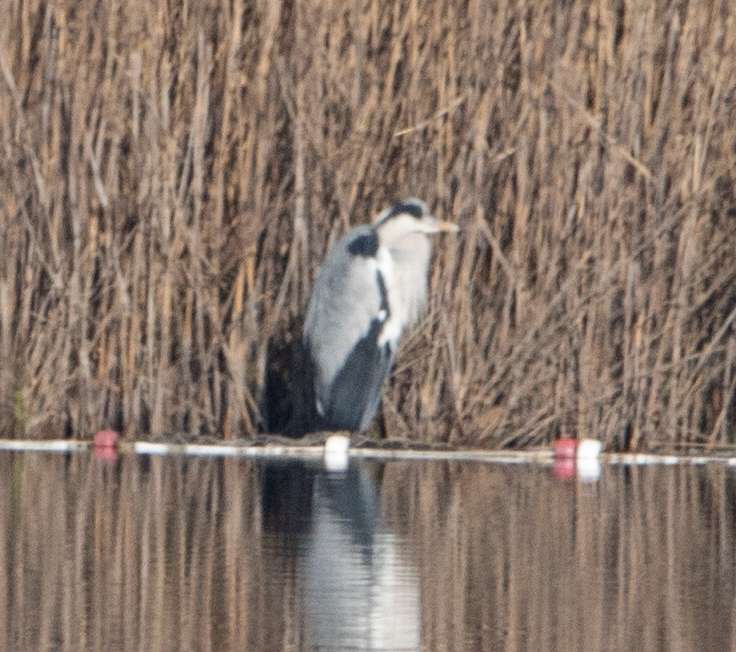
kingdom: Animalia
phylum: Chordata
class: Aves
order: Pelecaniformes
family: Ardeidae
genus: Ardea
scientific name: Ardea cinerea
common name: Grey heron
